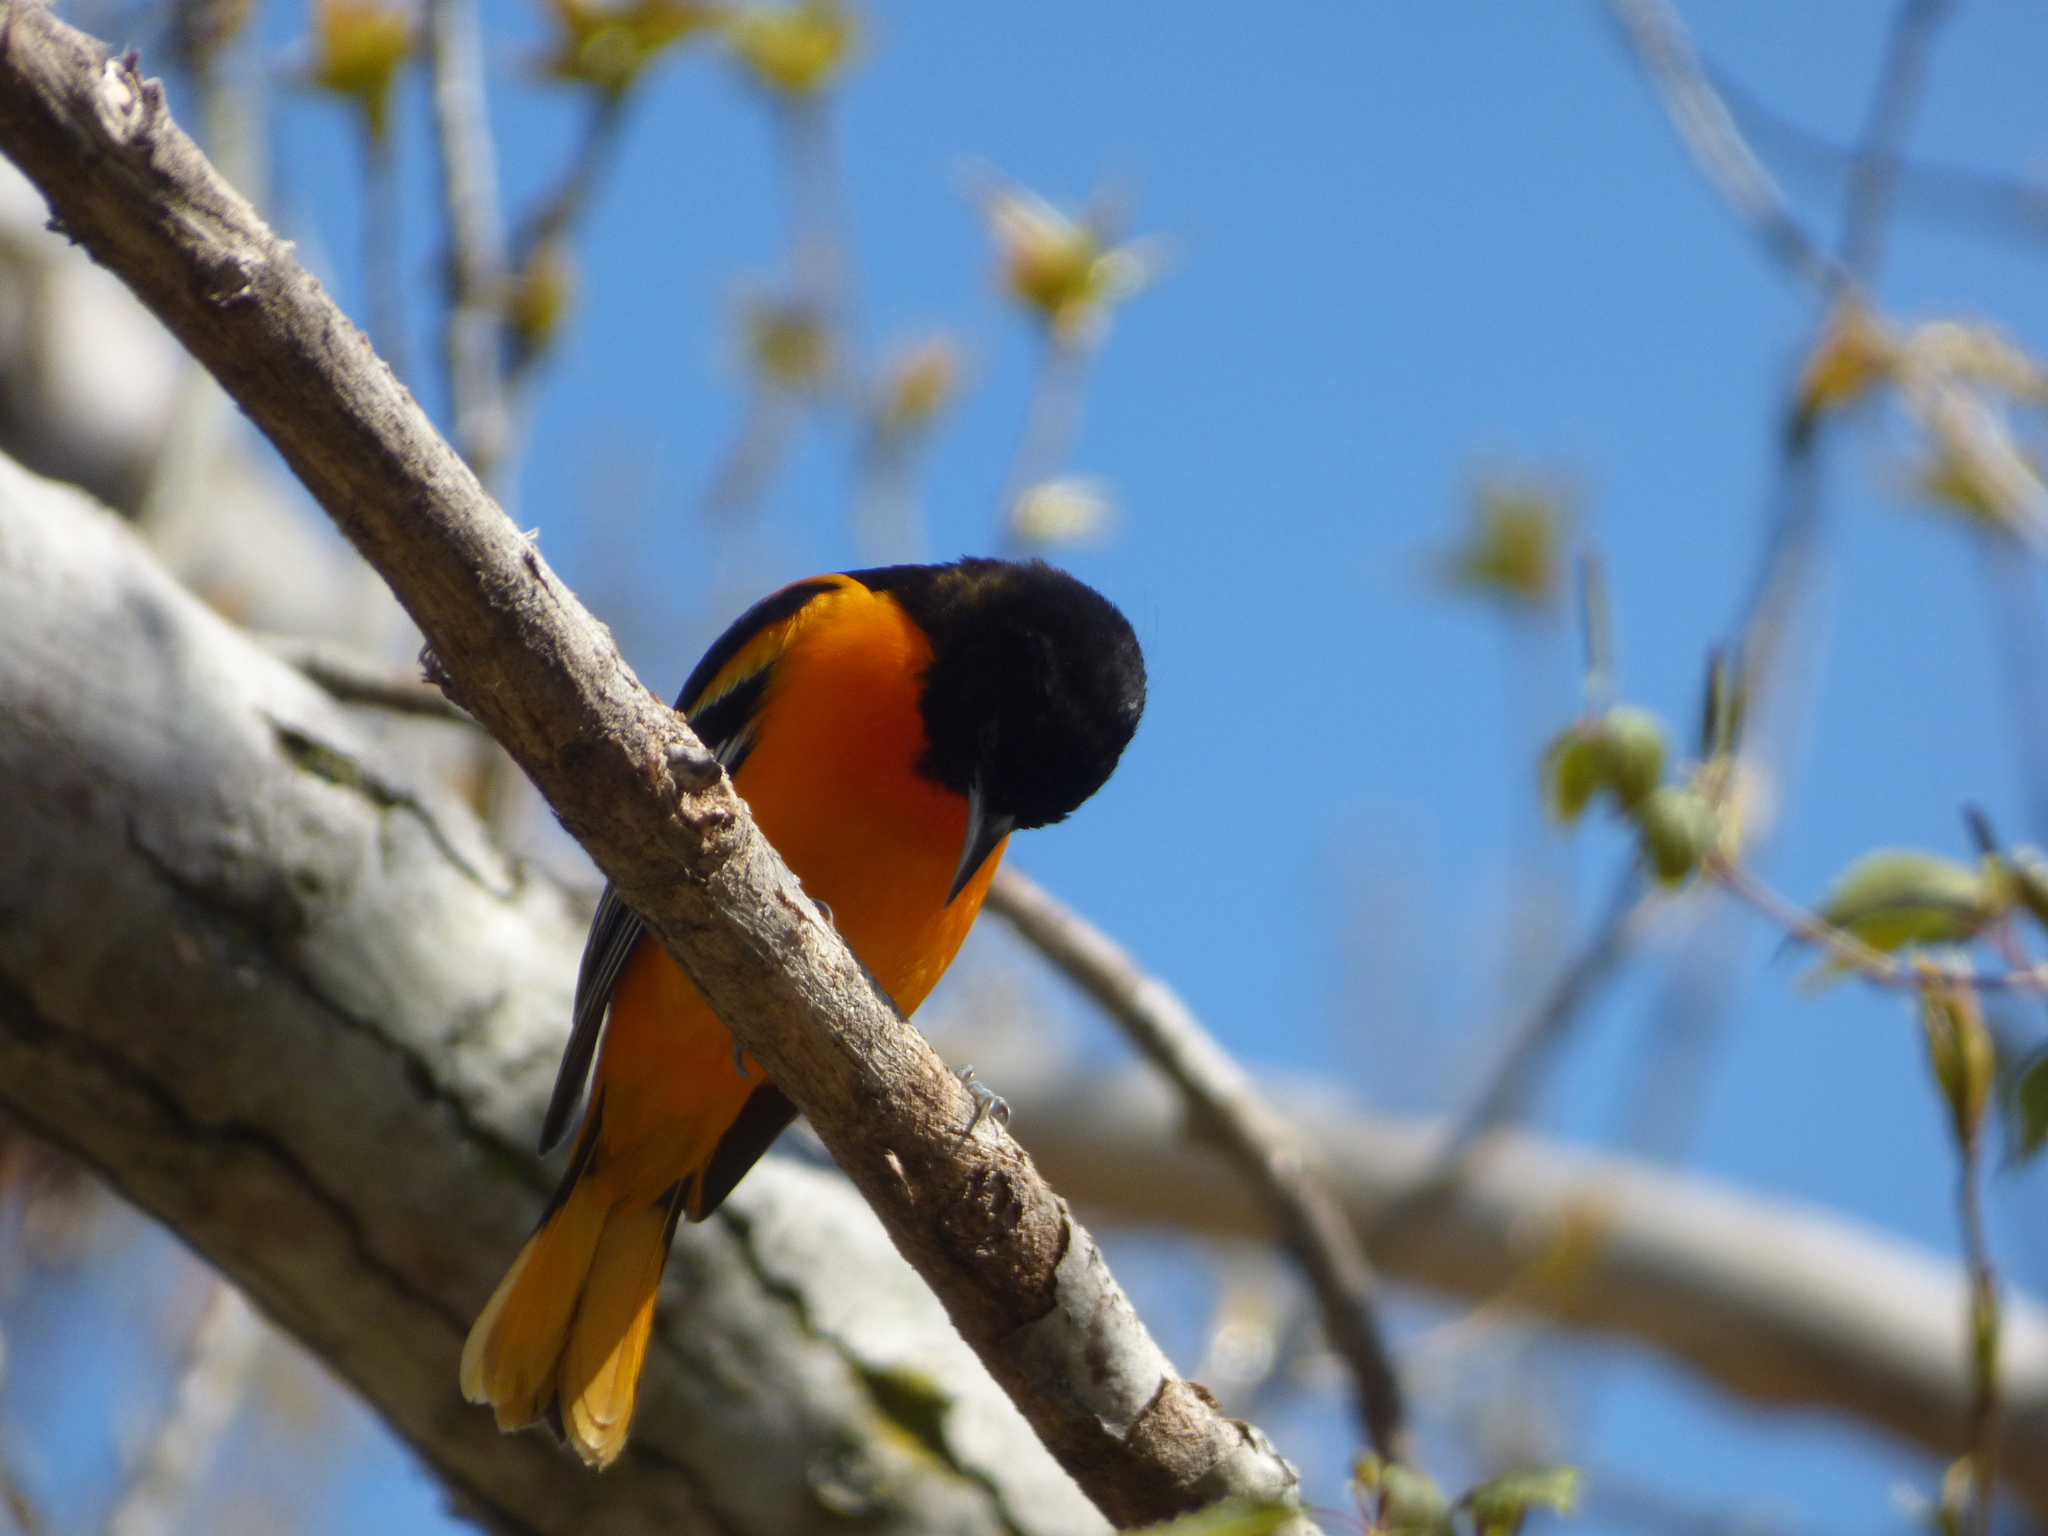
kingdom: Animalia
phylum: Chordata
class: Aves
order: Passeriformes
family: Icteridae
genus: Icterus
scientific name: Icterus galbula
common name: Baltimore oriole
